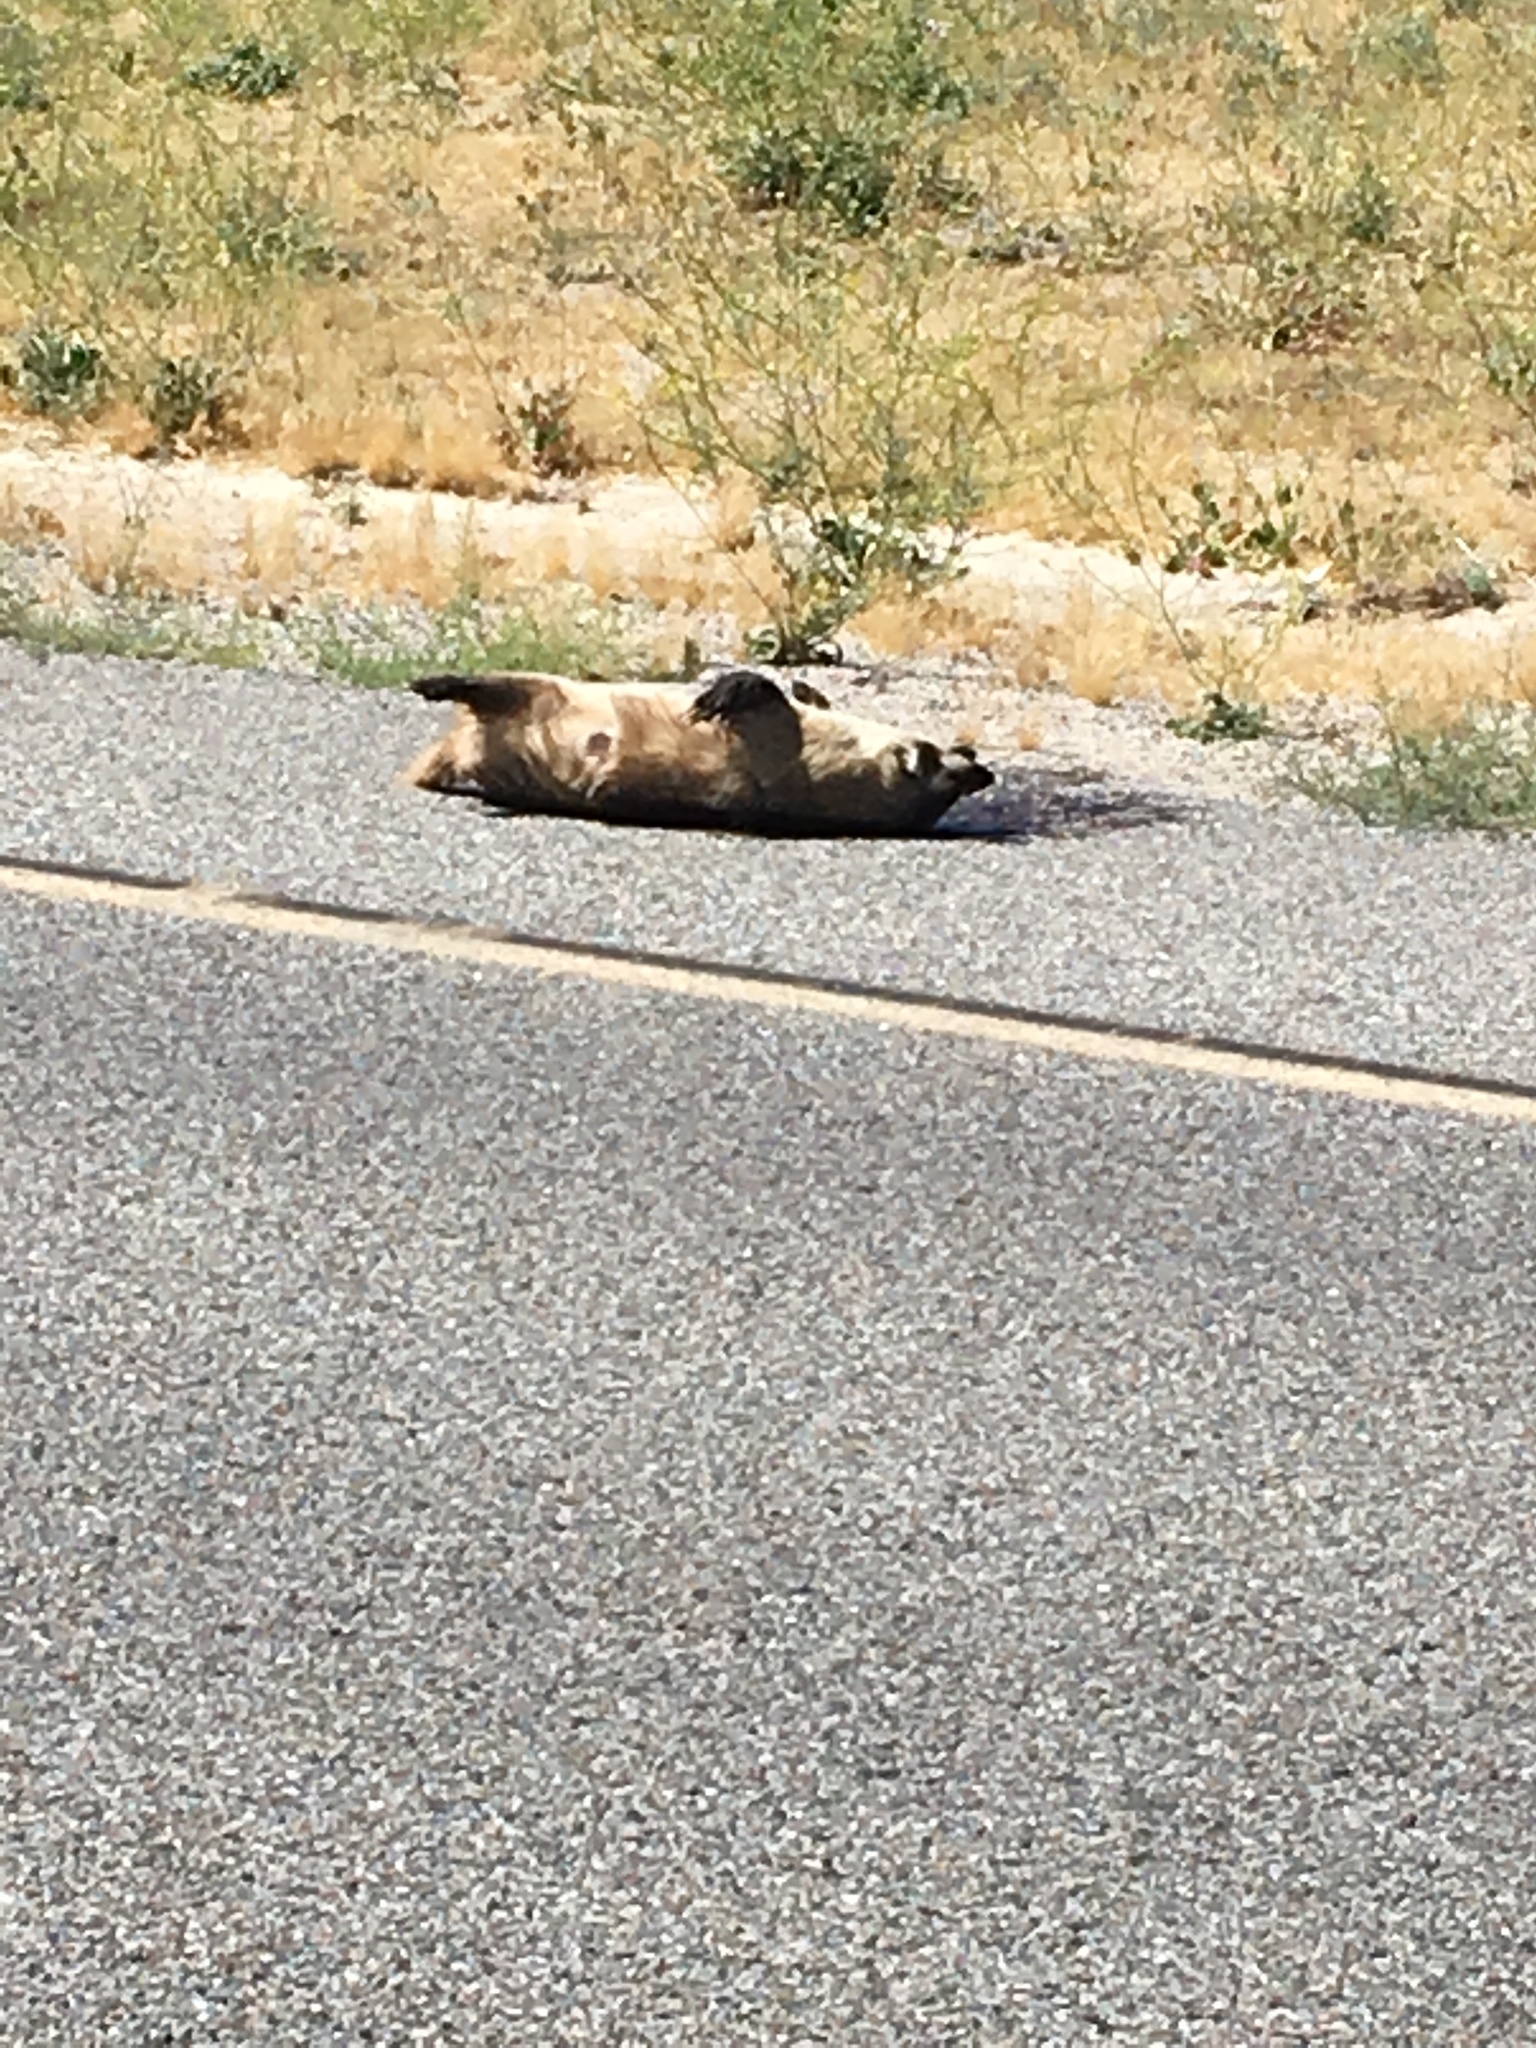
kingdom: Animalia
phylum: Chordata
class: Mammalia
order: Carnivora
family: Mustelidae
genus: Taxidea
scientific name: Taxidea taxus
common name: American badger
